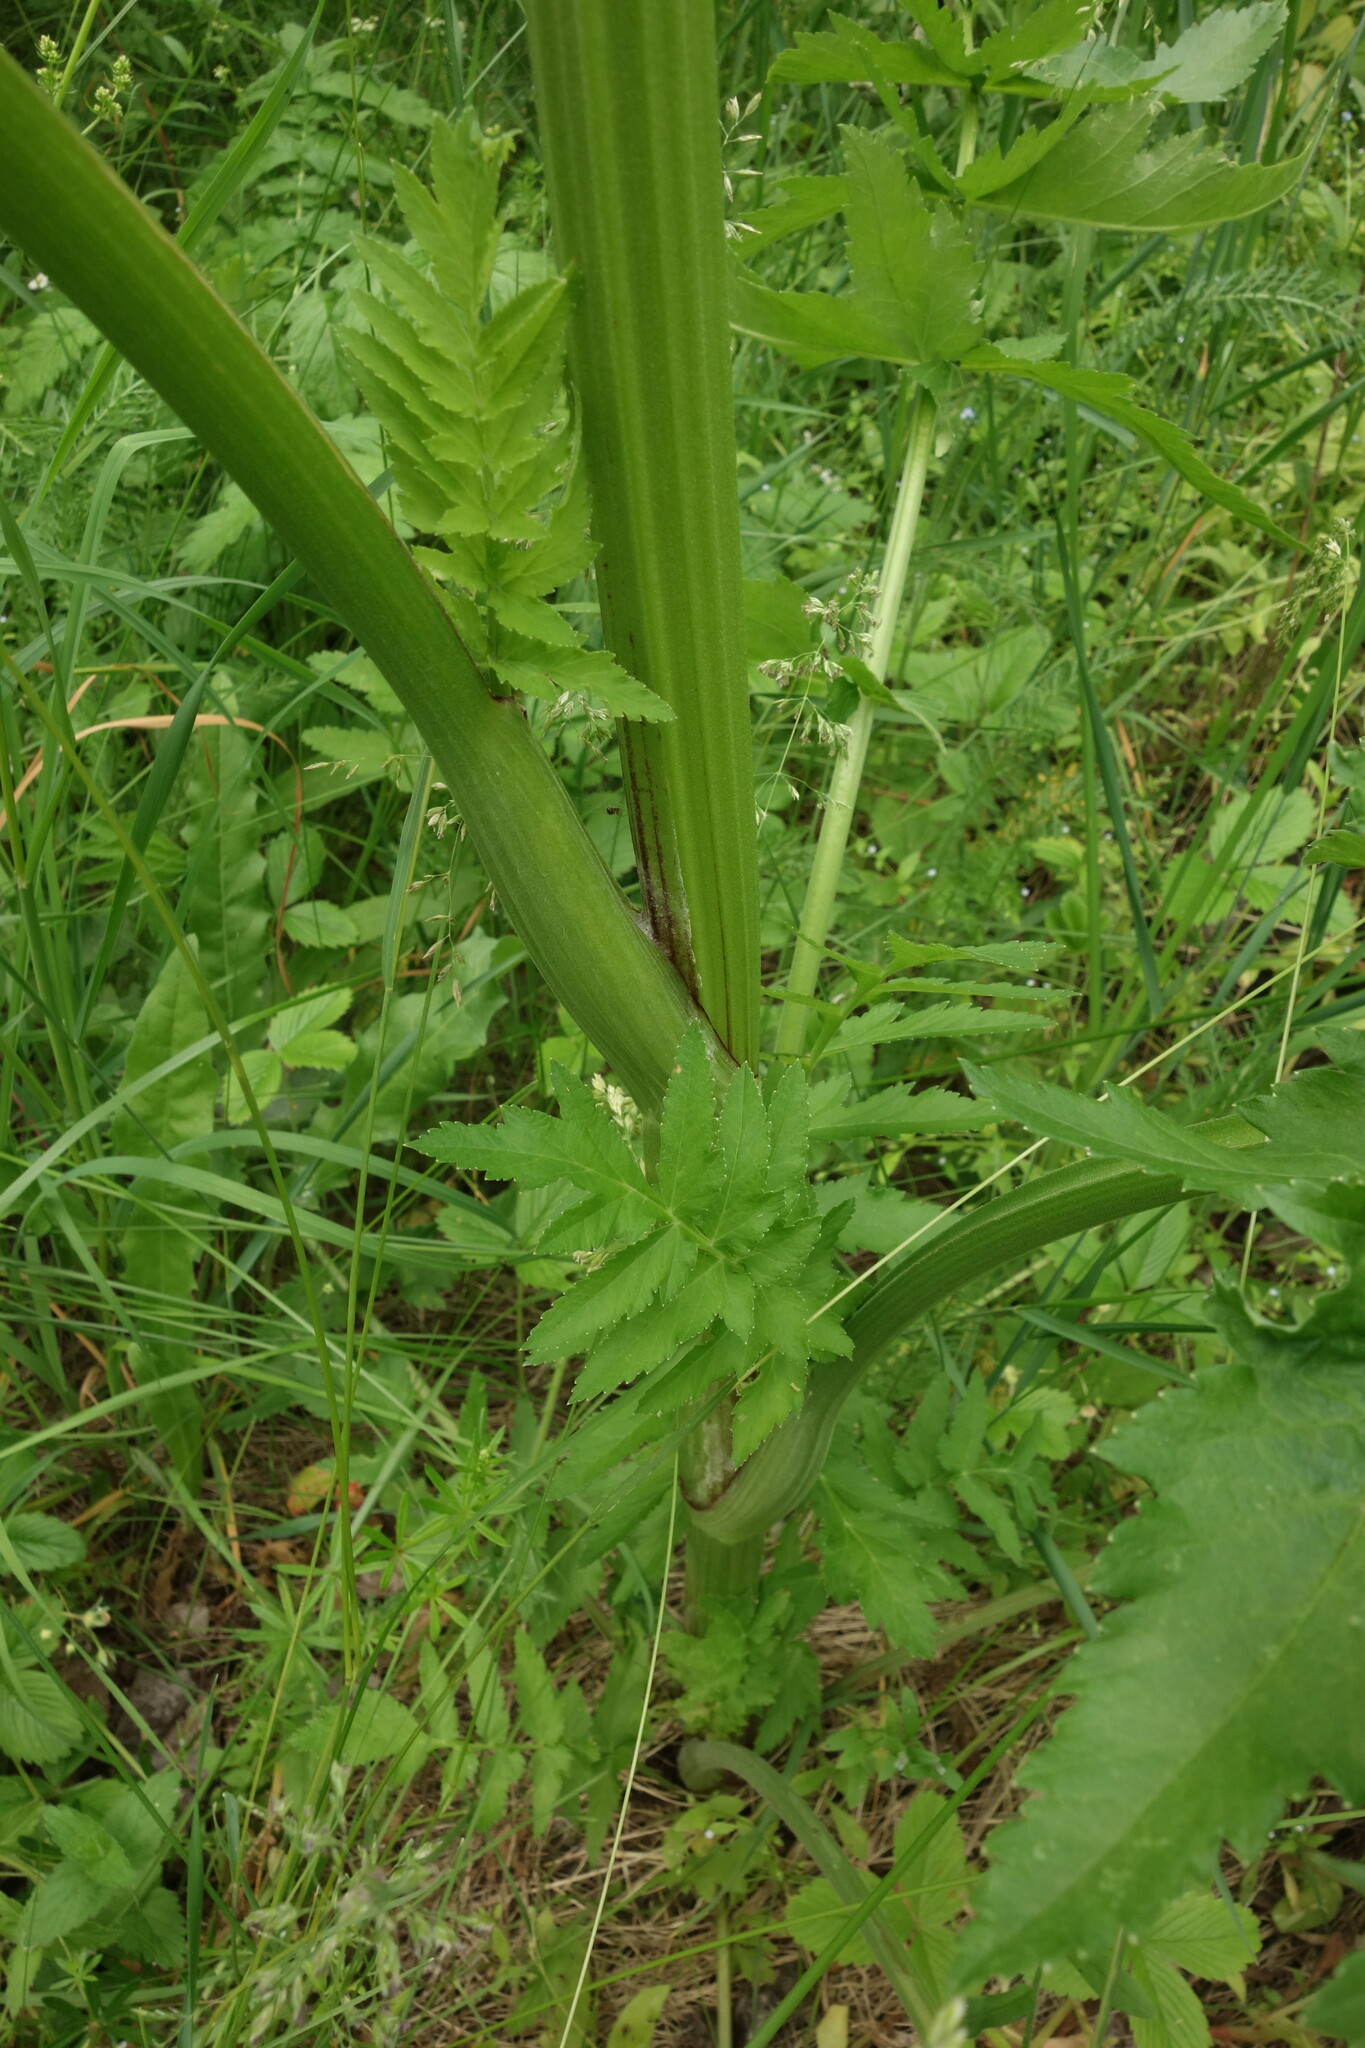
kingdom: Plantae
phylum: Tracheophyta
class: Magnoliopsida
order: Apiales
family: Apiaceae
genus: Pastinaca
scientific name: Pastinaca sativa
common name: Wild parsnip
